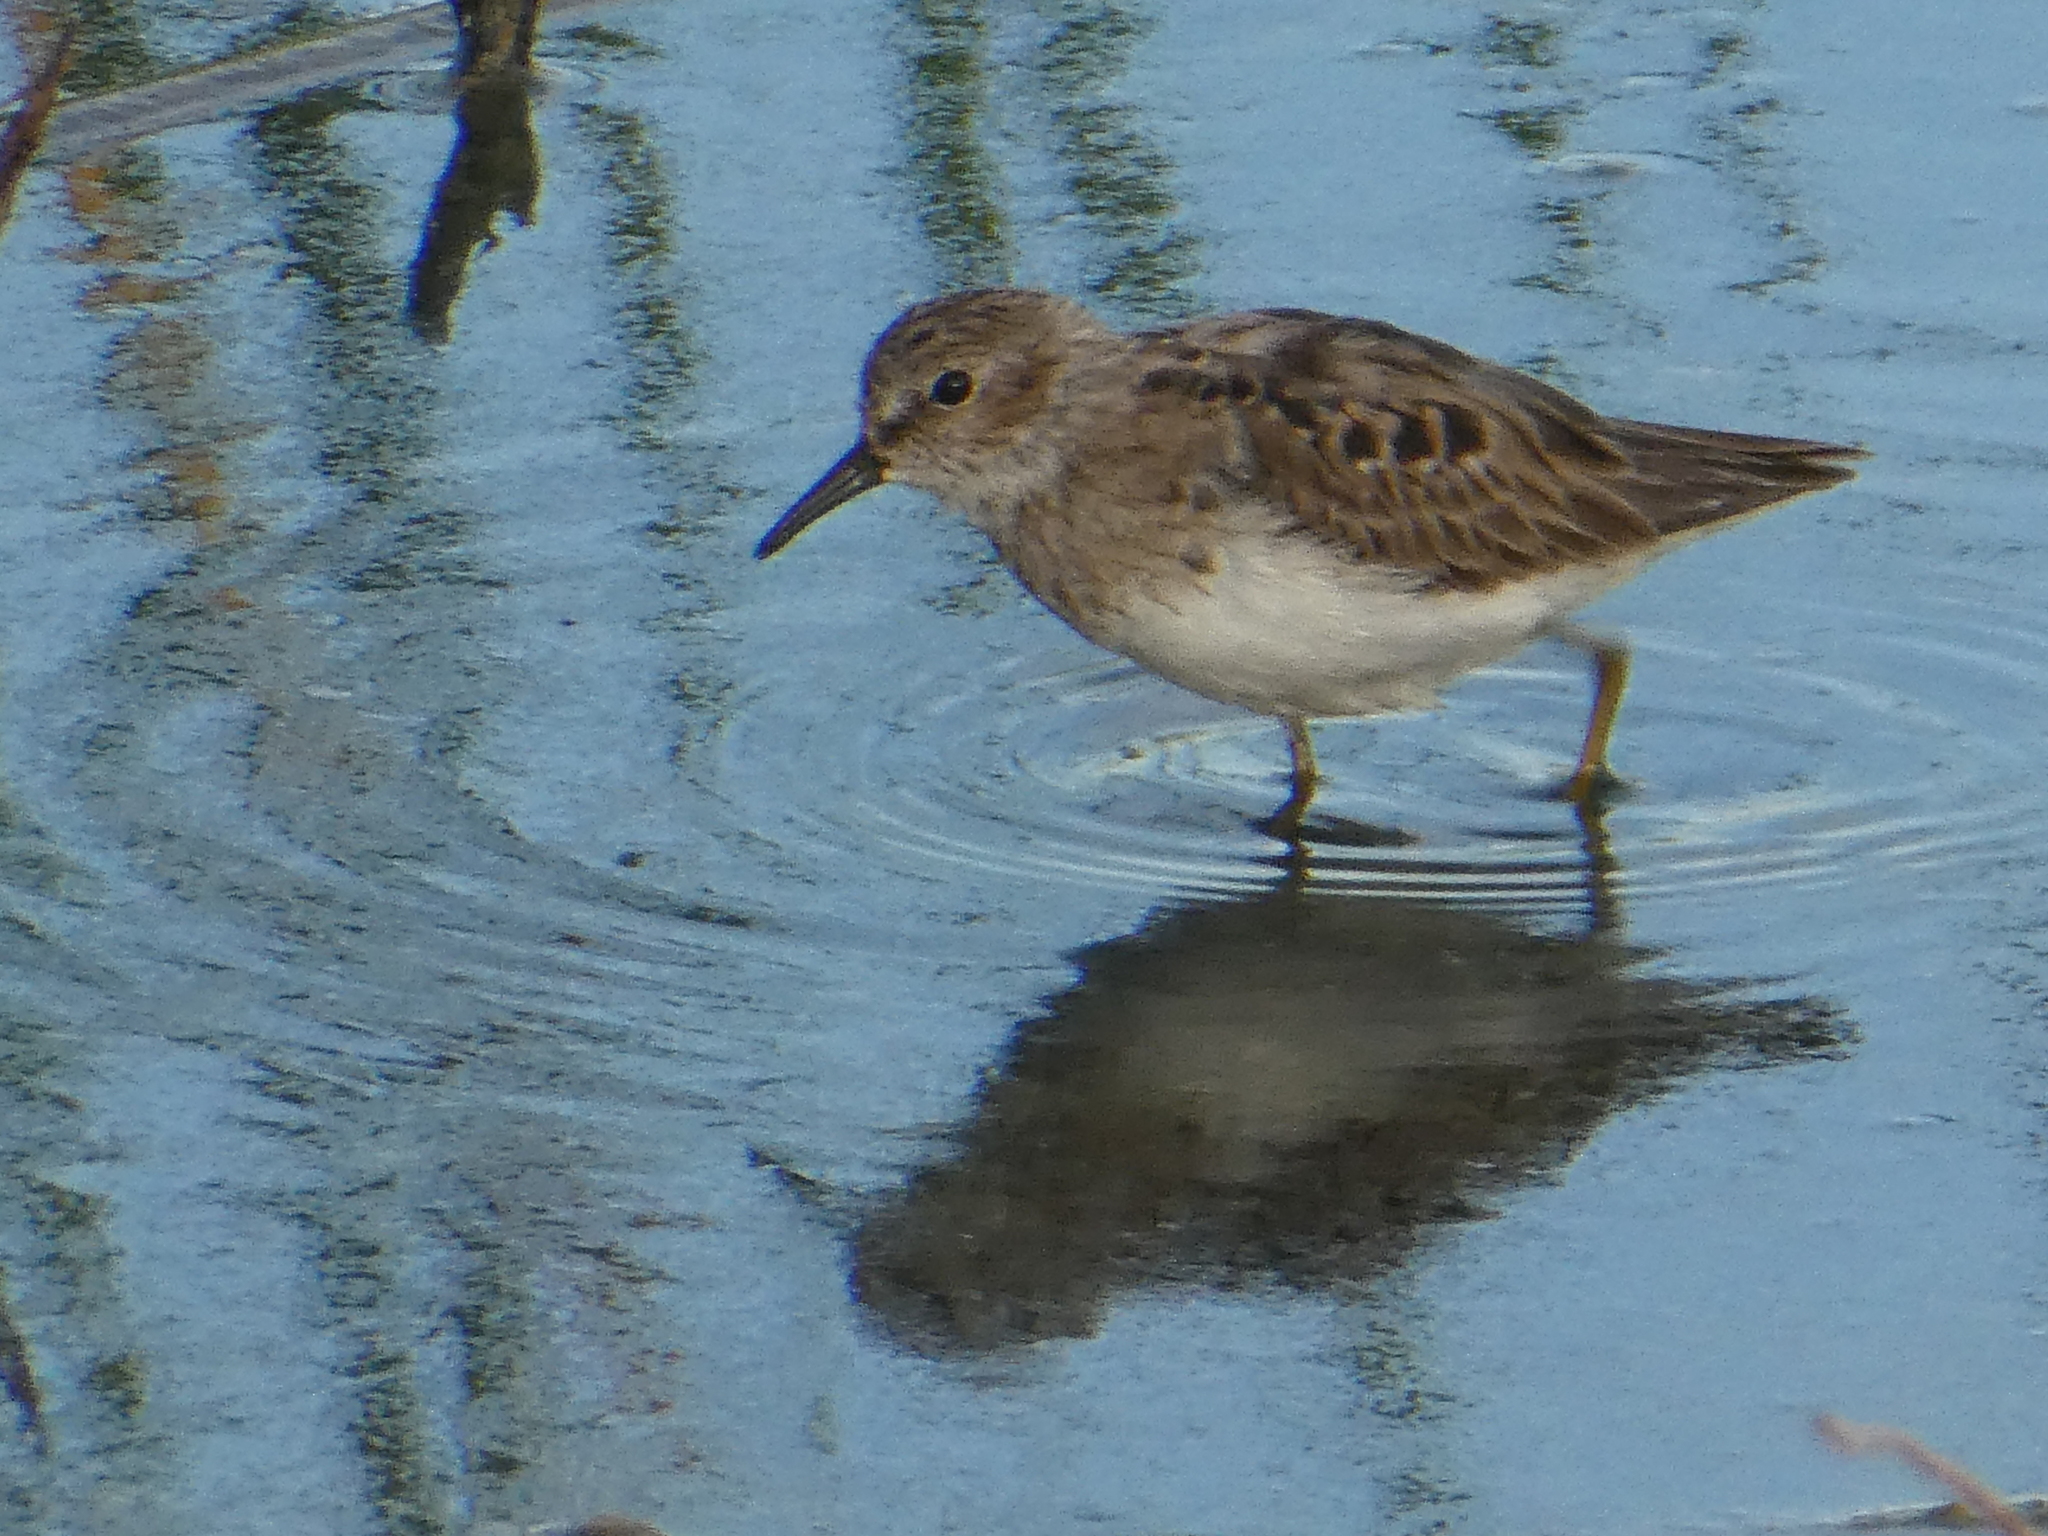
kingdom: Animalia
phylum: Chordata
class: Aves
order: Charadriiformes
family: Scolopacidae
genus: Calidris
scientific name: Calidris minutilla
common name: Least sandpiper
